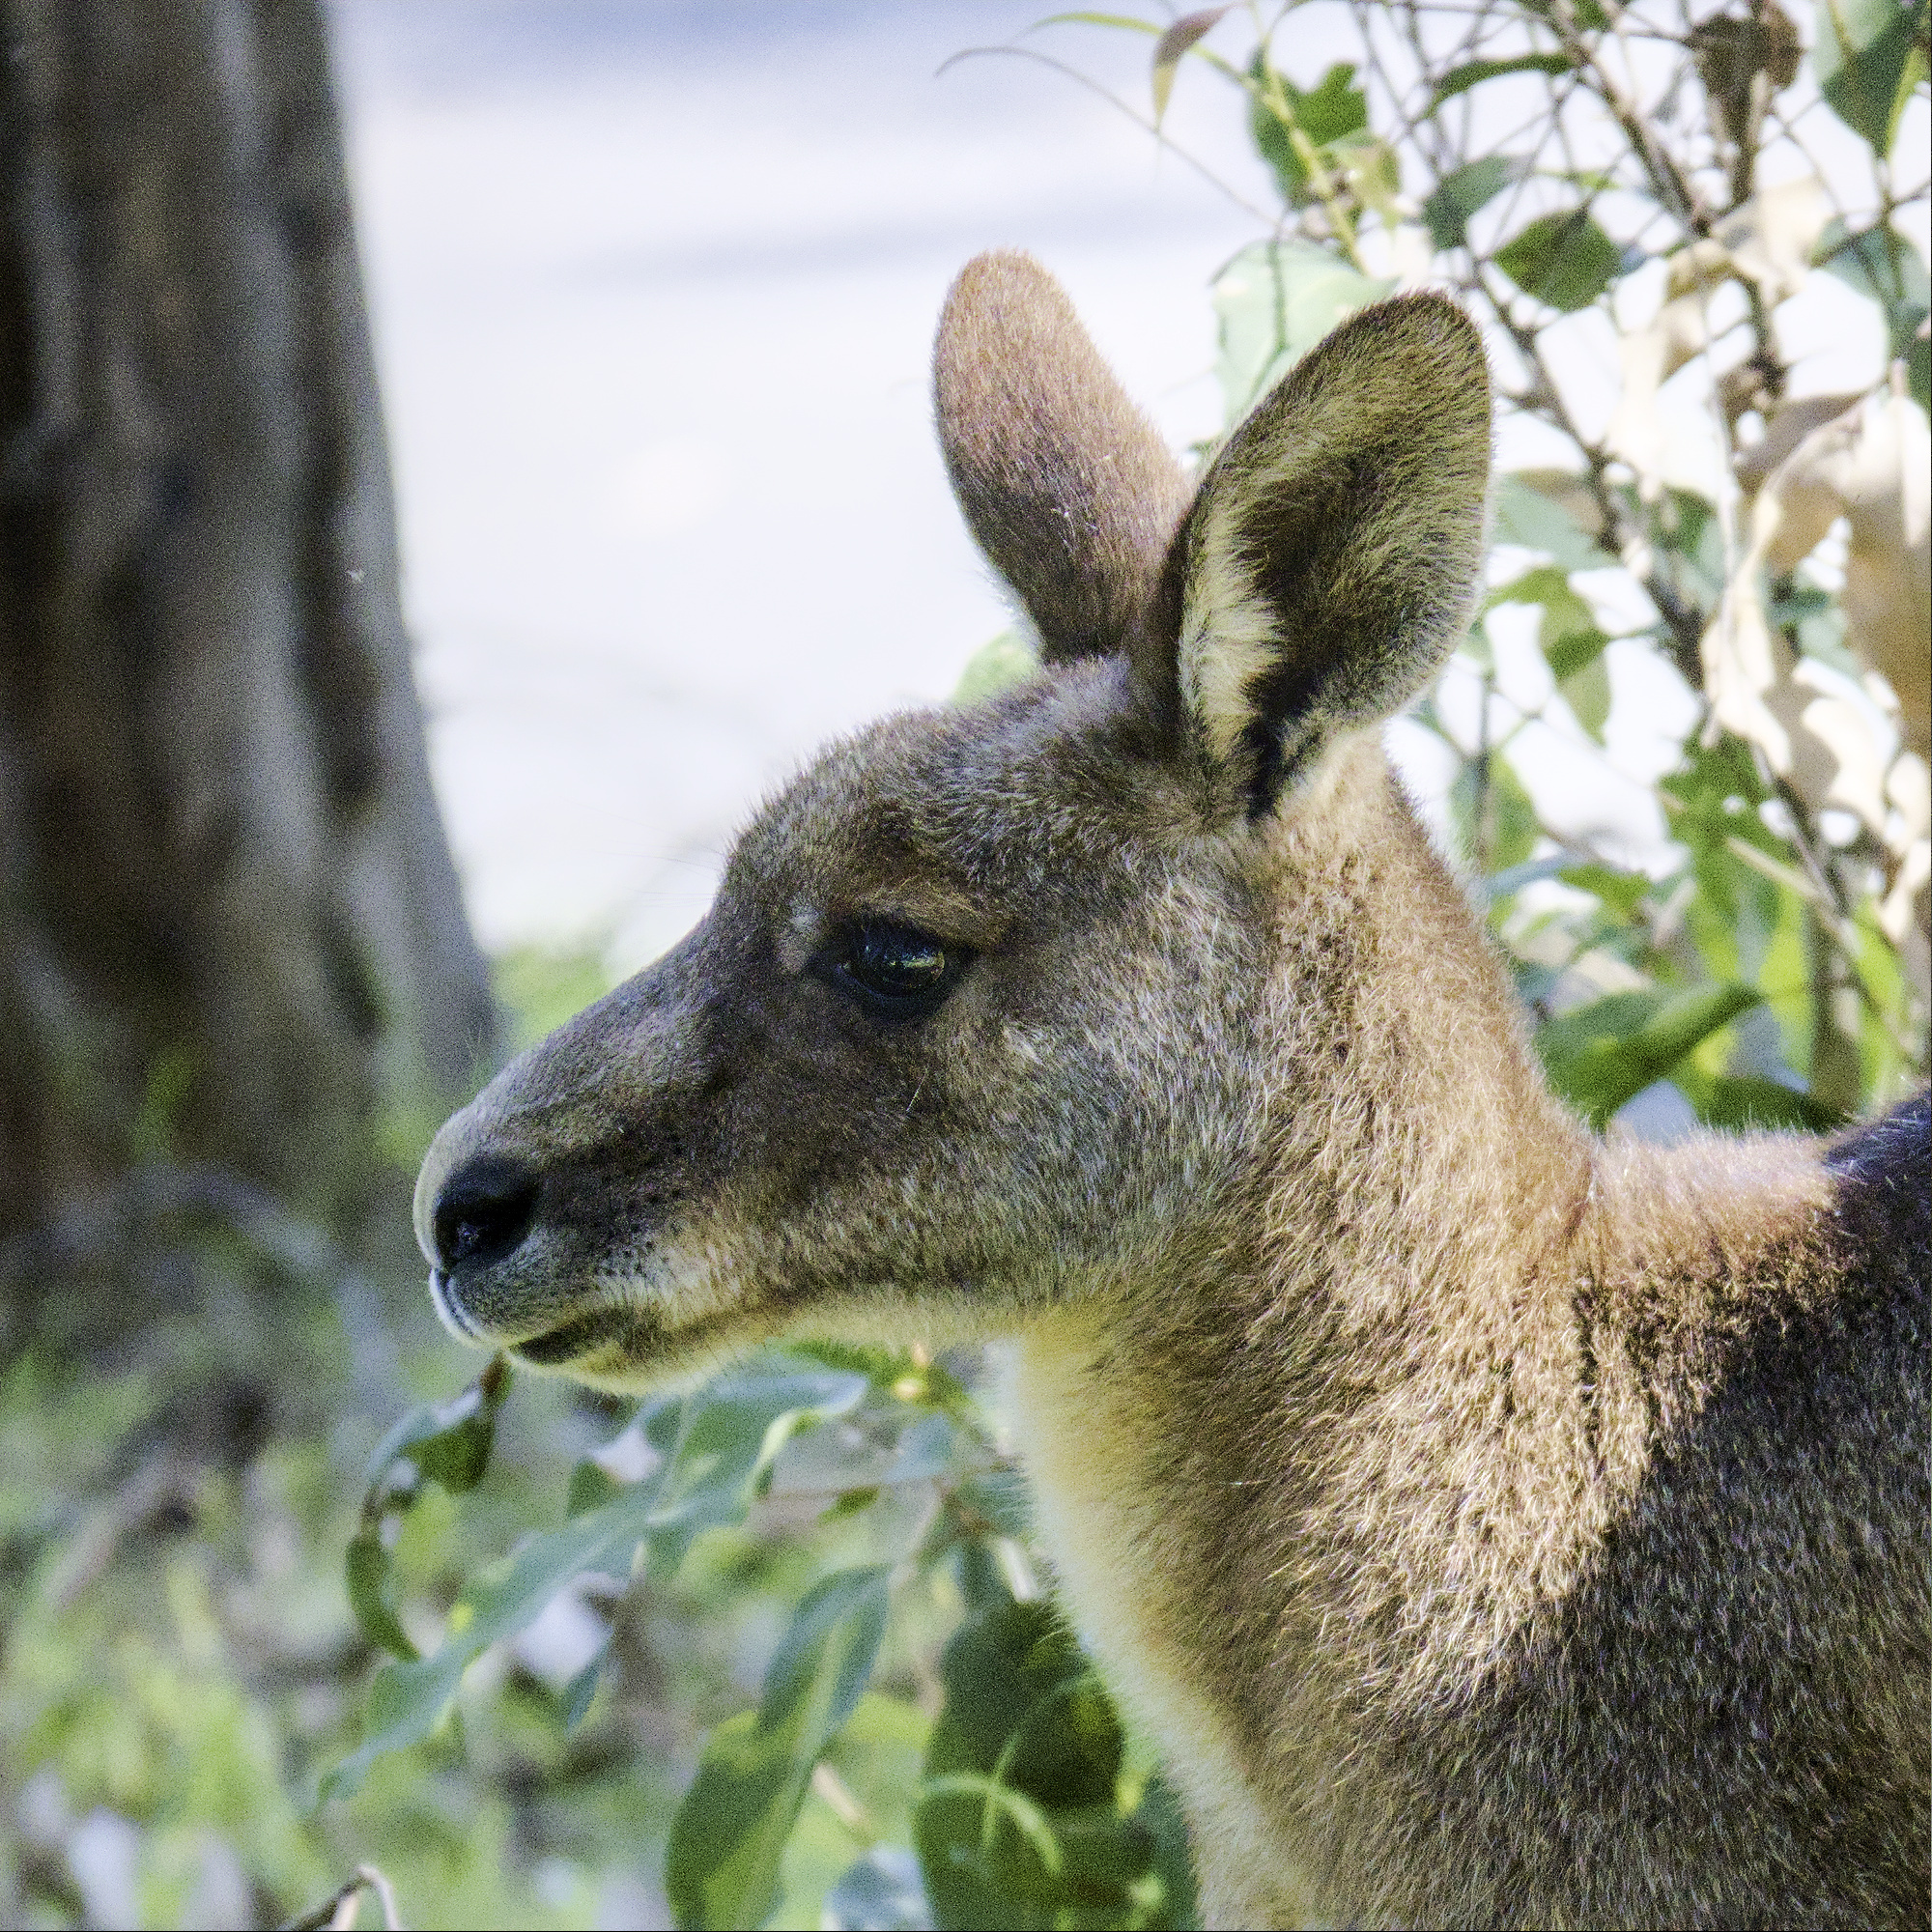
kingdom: Animalia
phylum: Chordata
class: Mammalia
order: Diprotodontia
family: Macropodidae
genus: Macropus
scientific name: Macropus giganteus
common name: Eastern grey kangaroo
